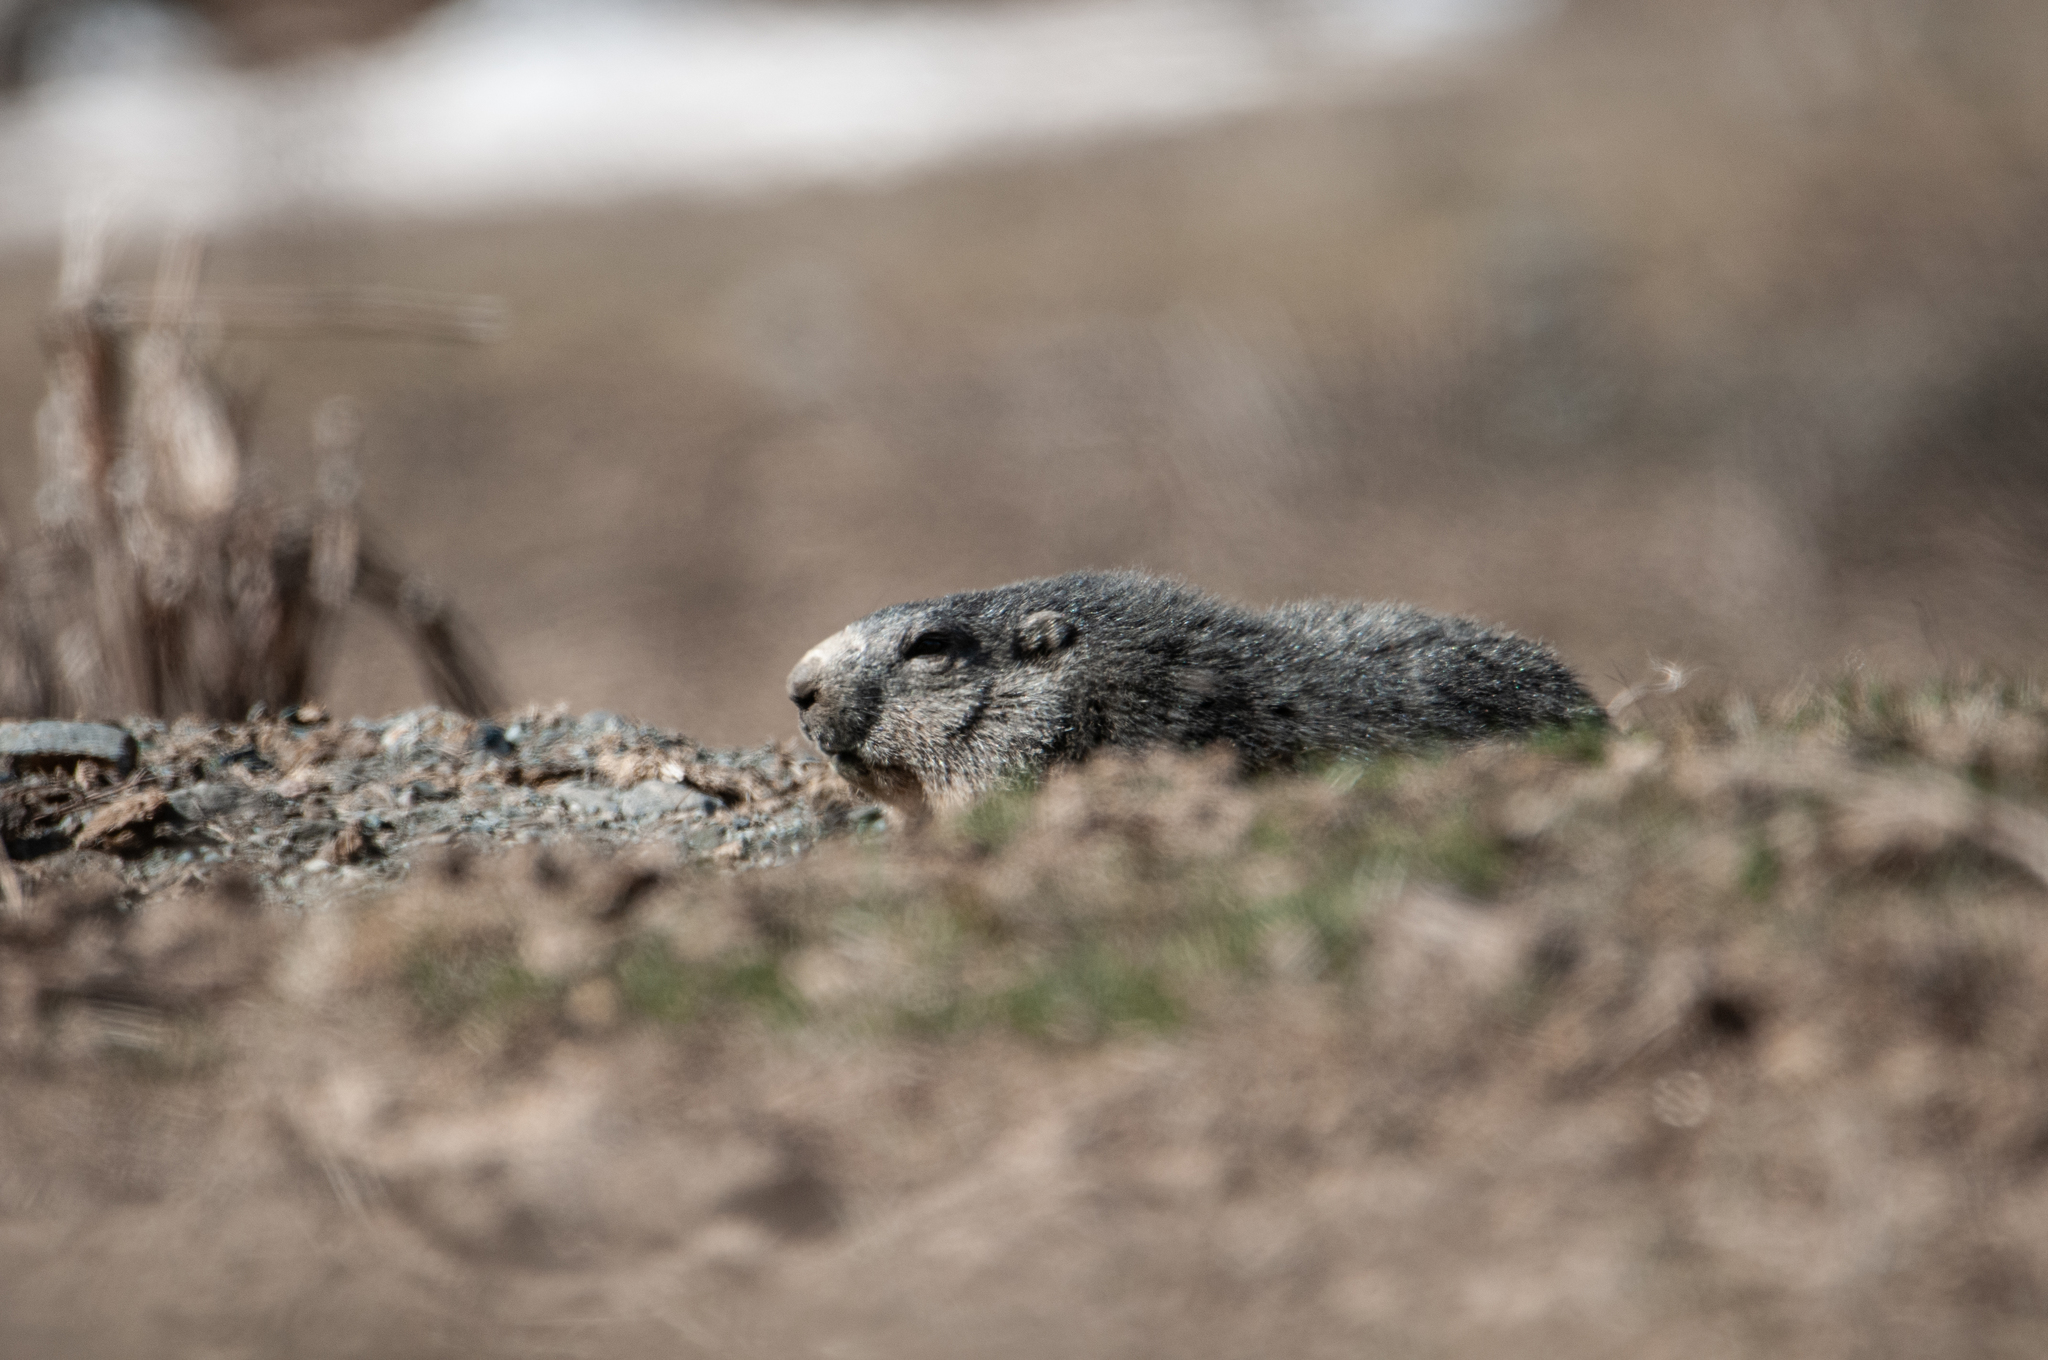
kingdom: Animalia
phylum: Chordata
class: Mammalia
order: Rodentia
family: Sciuridae
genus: Marmota
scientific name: Marmota marmota
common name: Alpine marmot
